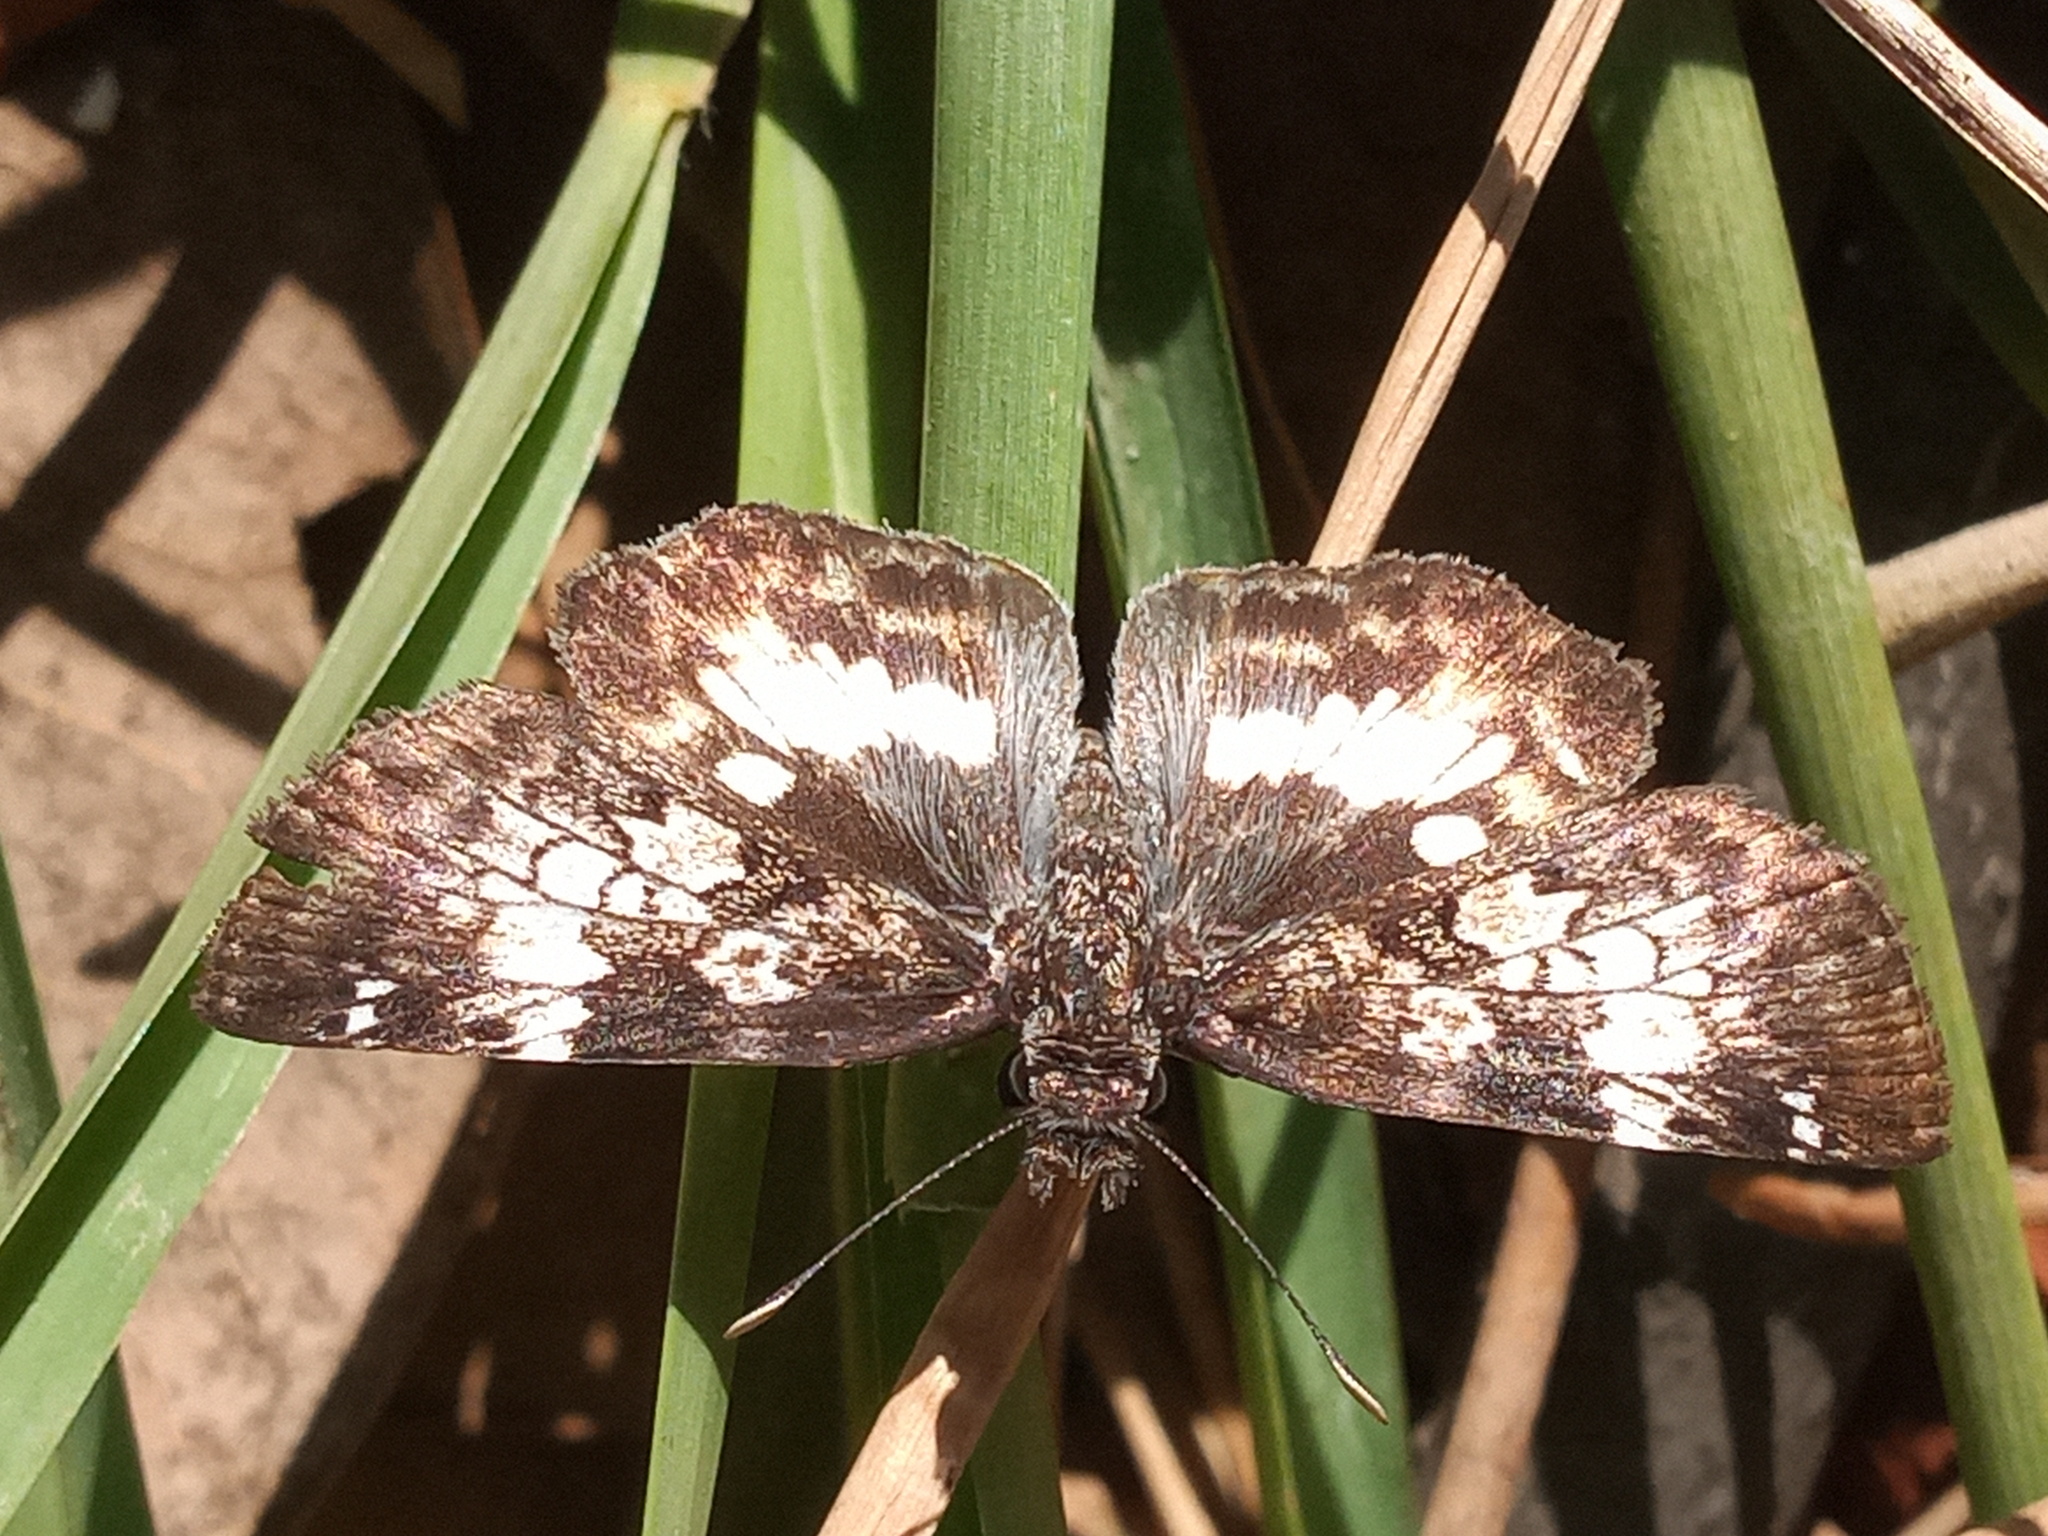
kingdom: Animalia
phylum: Arthropoda
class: Insecta
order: Lepidoptera
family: Hesperiidae
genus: Chiothion
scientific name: Chiothion georgina
